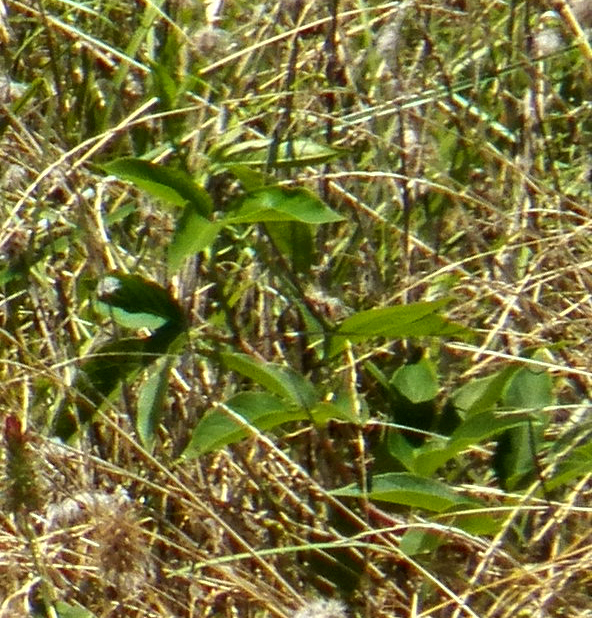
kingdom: Plantae
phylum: Tracheophyta
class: Magnoliopsida
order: Malpighiales
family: Passifloraceae
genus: Passiflora
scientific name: Passiflora incarnata
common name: Apricot-vine
